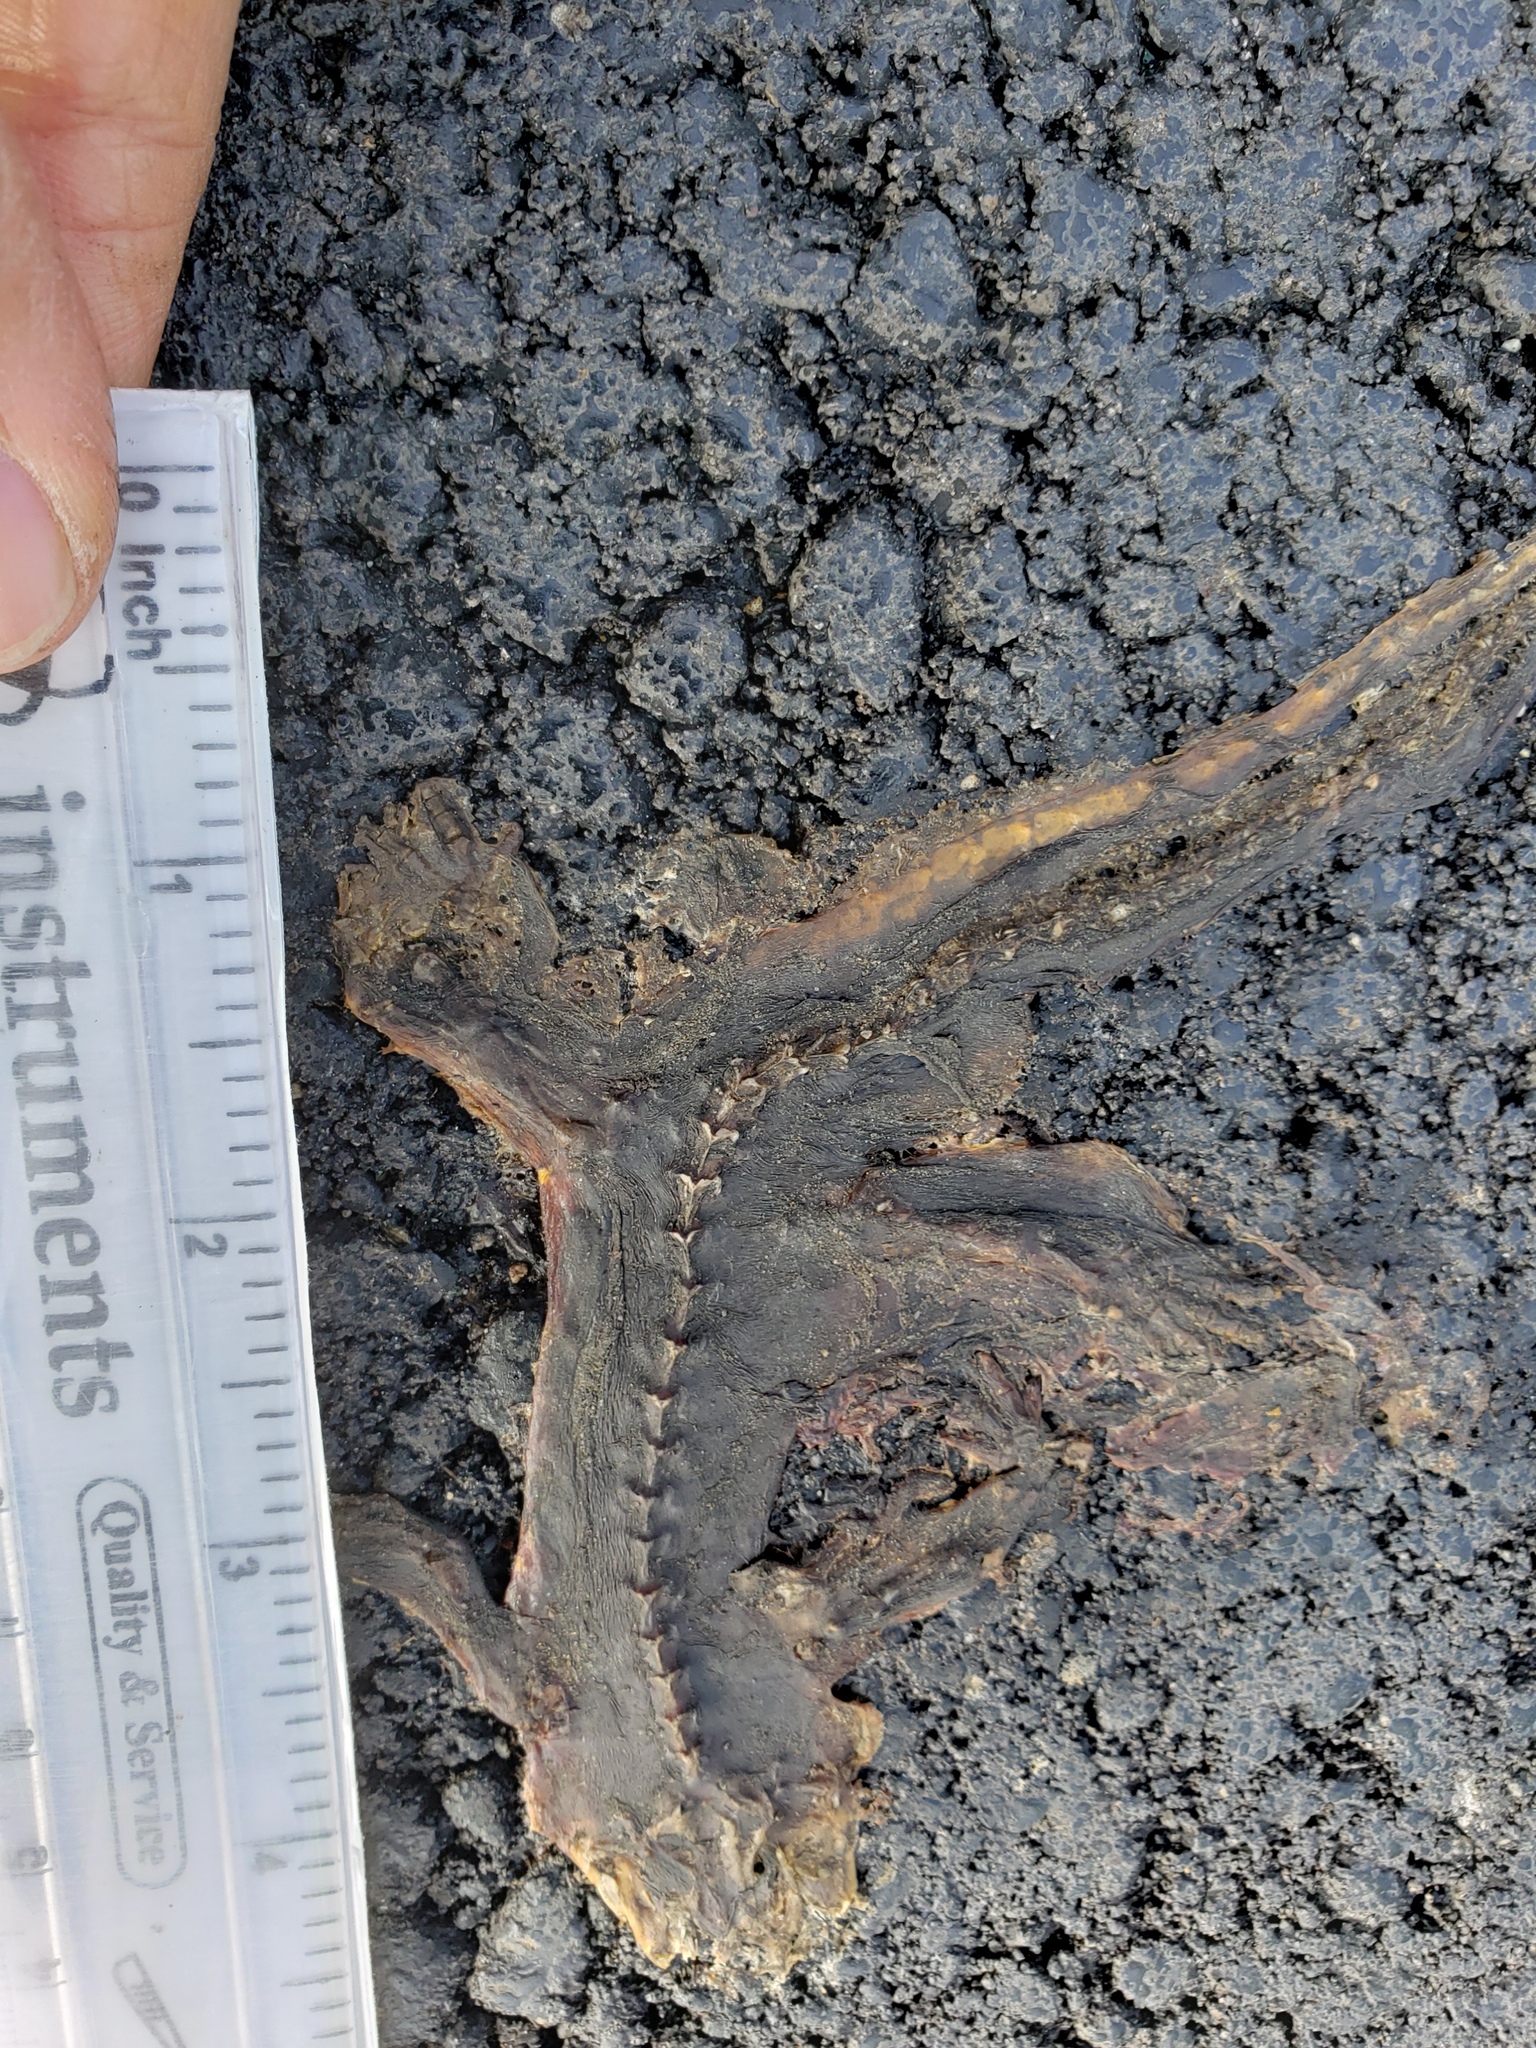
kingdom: Animalia
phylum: Chordata
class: Amphibia
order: Caudata
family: Salamandridae
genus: Taricha
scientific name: Taricha
